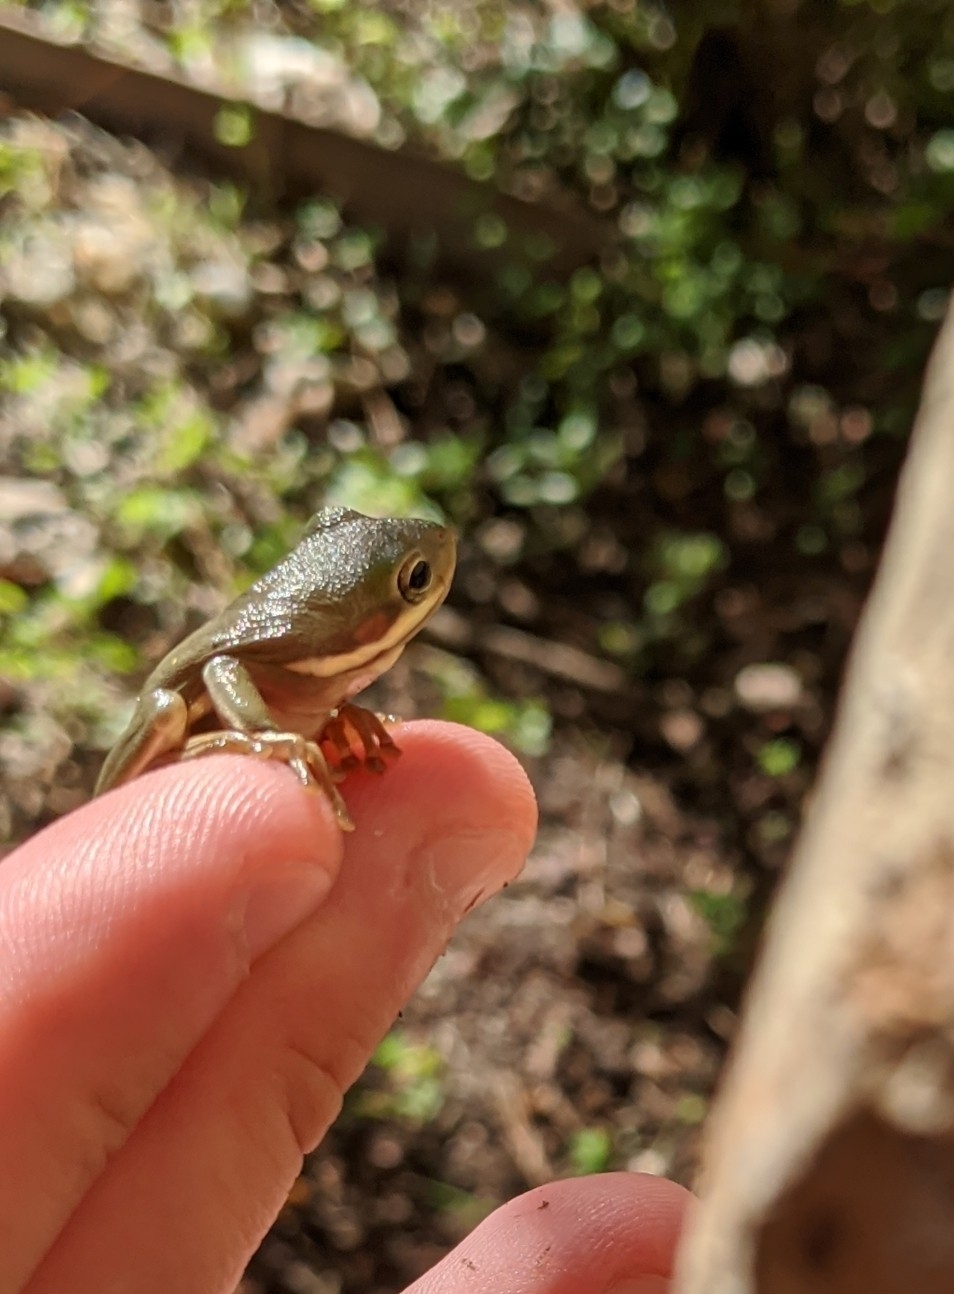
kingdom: Animalia
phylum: Chordata
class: Amphibia
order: Anura
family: Hylidae
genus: Dryophytes
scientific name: Dryophytes cinereus
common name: Green treefrog
